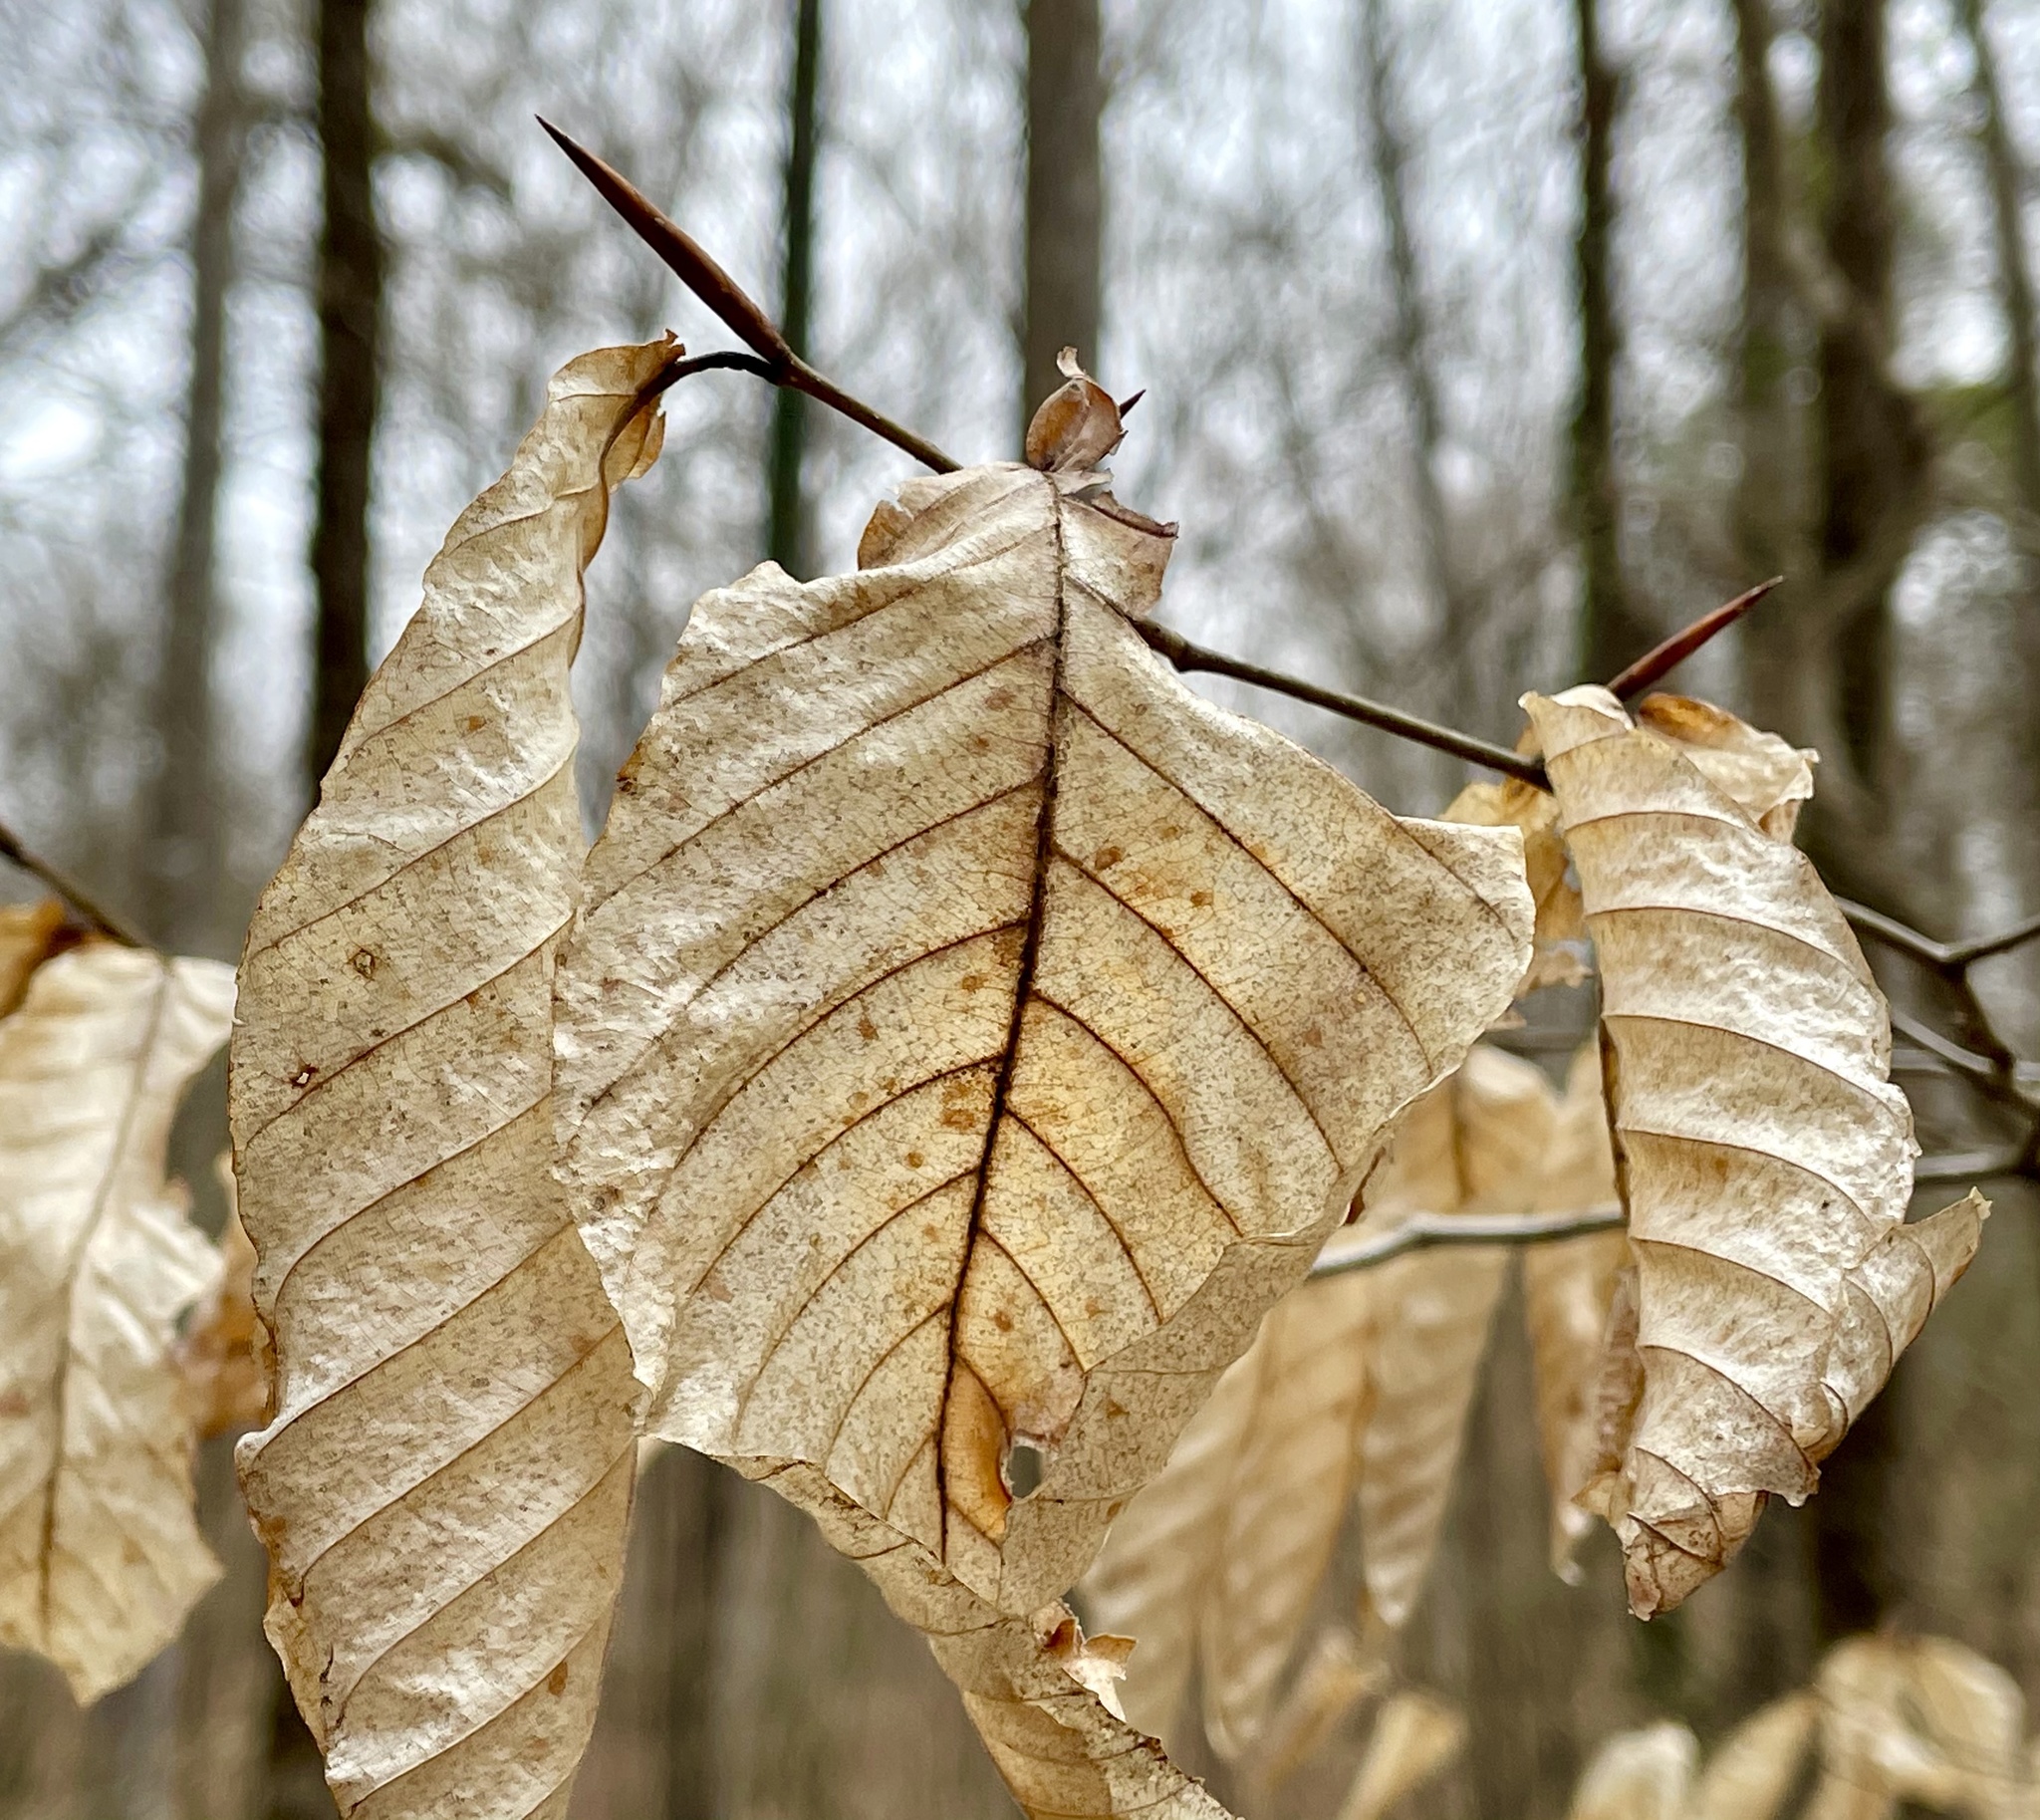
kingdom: Plantae
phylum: Tracheophyta
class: Magnoliopsida
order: Fagales
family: Fagaceae
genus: Fagus
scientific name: Fagus grandifolia
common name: American beech
